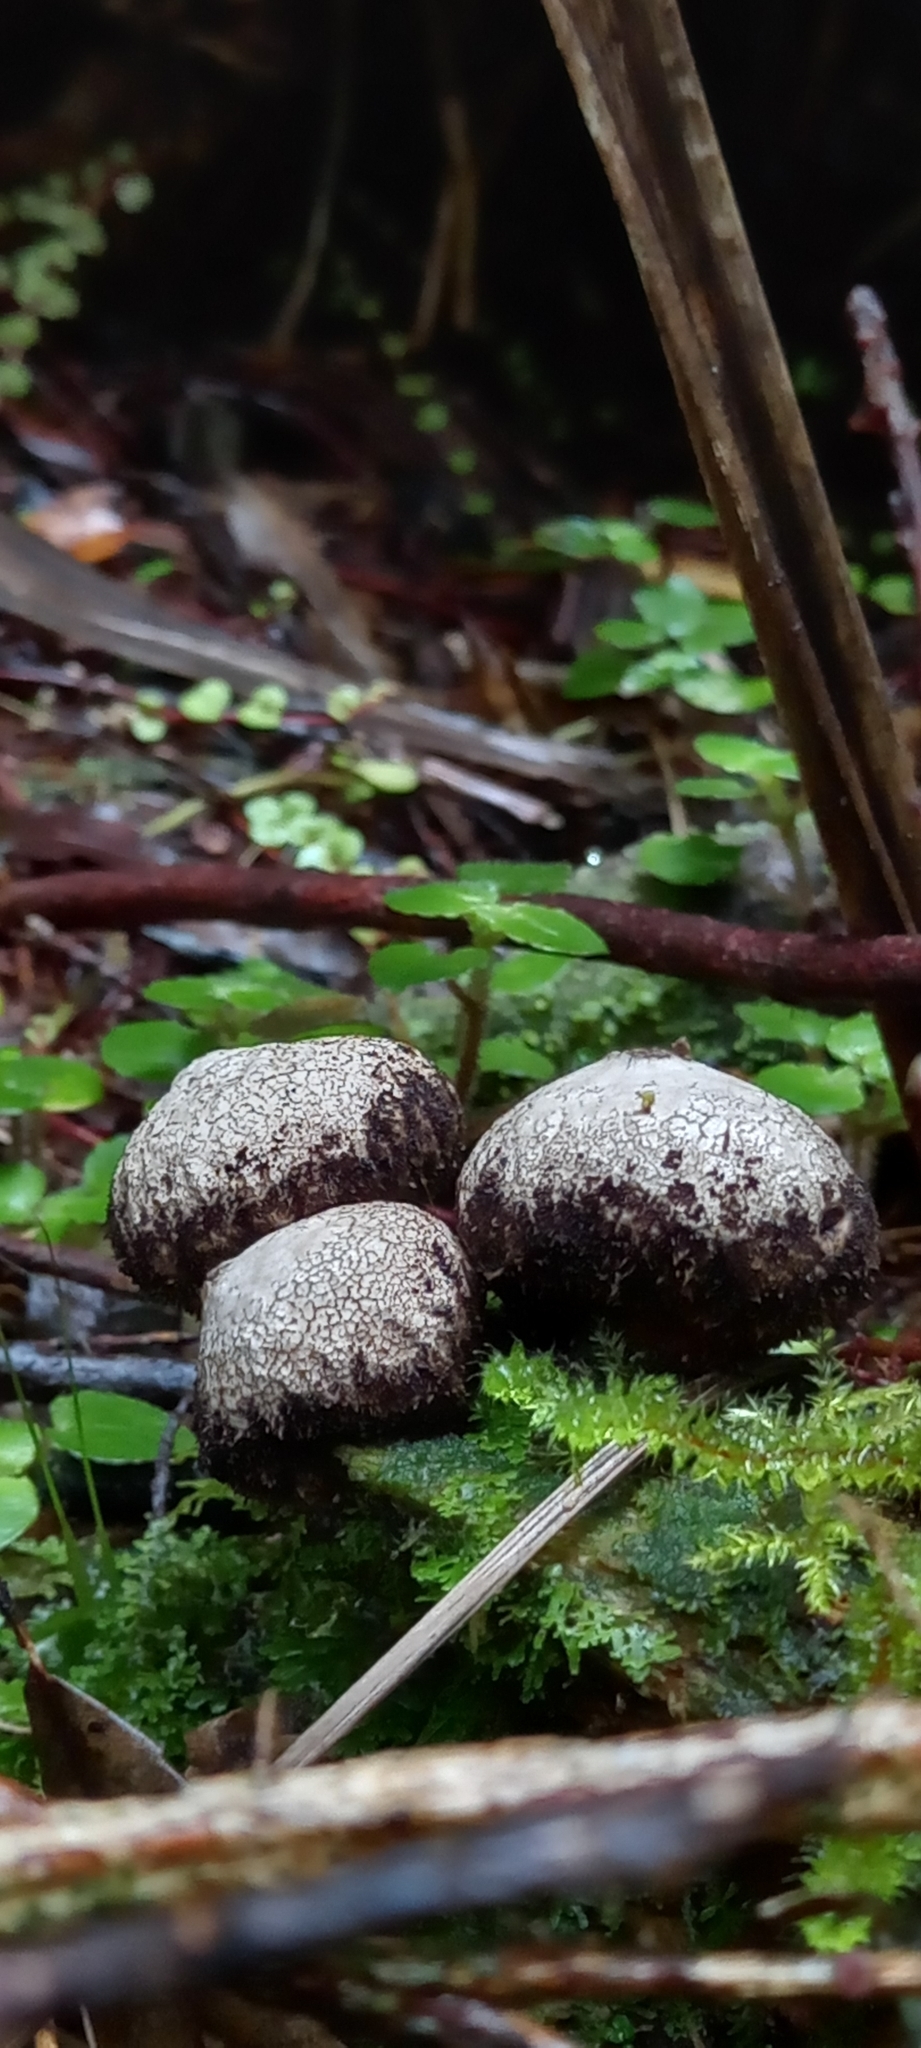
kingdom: Fungi
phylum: Basidiomycota
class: Agaricomycetes
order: Agaricales
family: Lycoperdaceae
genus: Lycoperdon
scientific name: Lycoperdon compactum
